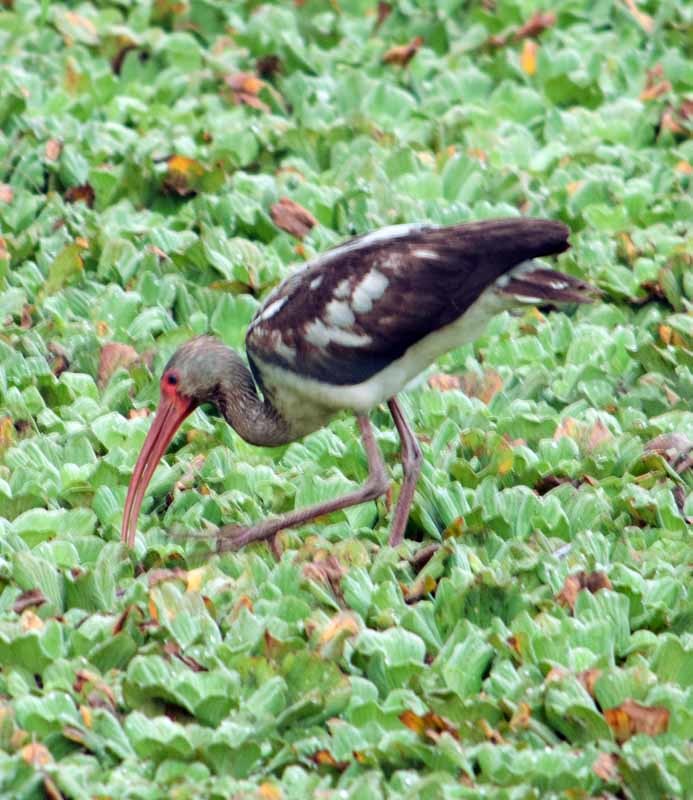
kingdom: Animalia
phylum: Chordata
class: Aves
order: Pelecaniformes
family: Threskiornithidae
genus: Eudocimus
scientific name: Eudocimus albus
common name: White ibis
